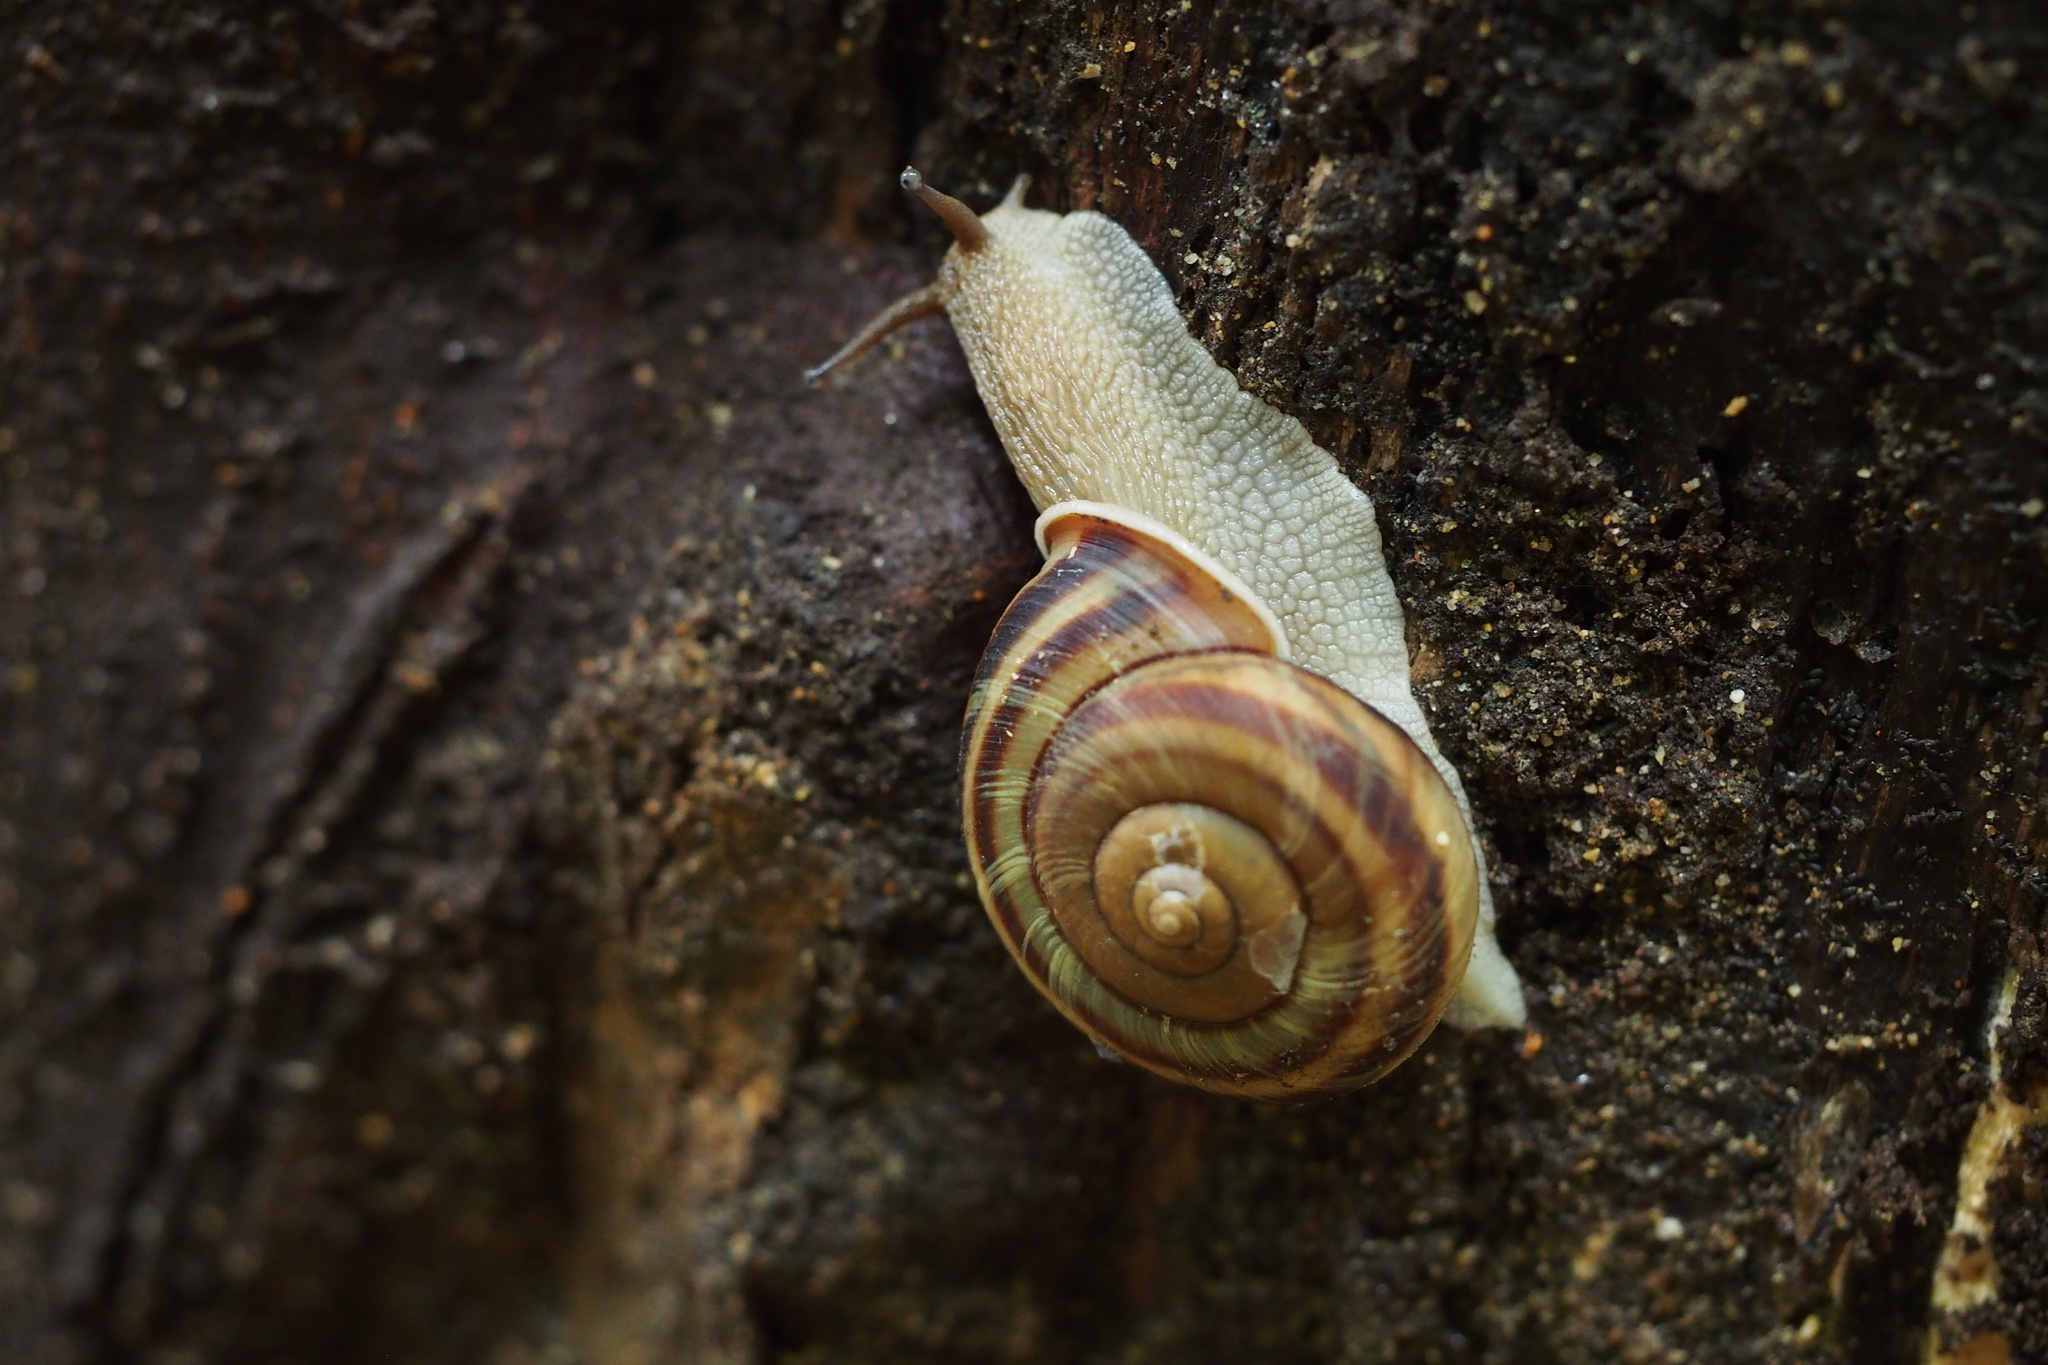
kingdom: Animalia
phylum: Mollusca
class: Gastropoda
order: Stylommatophora
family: Camaenidae
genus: Euhadra
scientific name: Euhadra sandai
